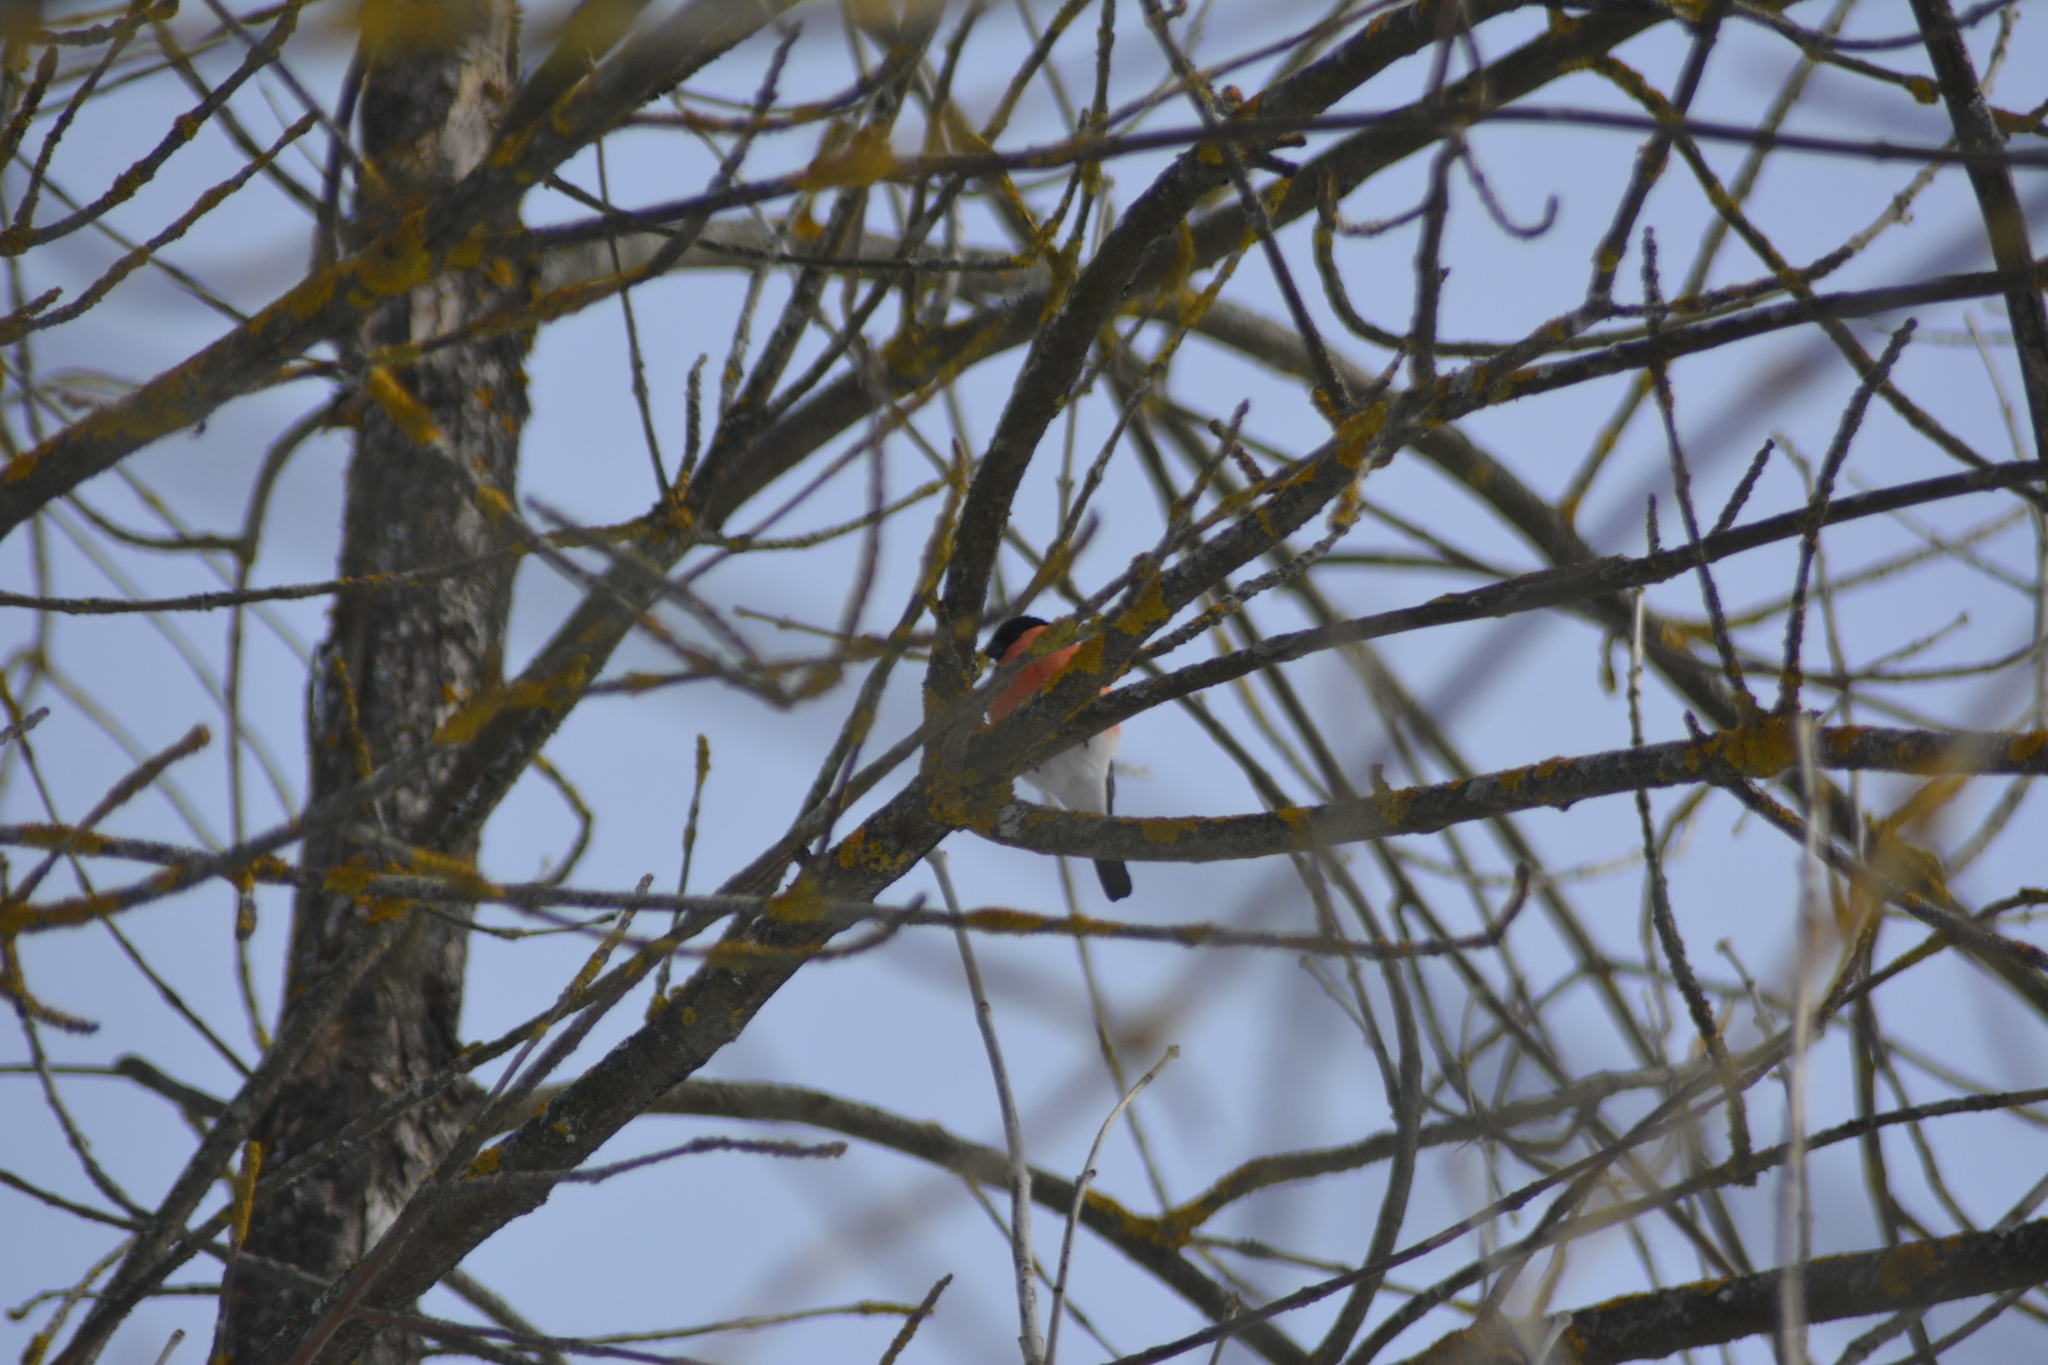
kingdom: Animalia
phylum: Chordata
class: Aves
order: Passeriformes
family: Fringillidae
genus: Pyrrhula
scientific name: Pyrrhula pyrrhula
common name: Eurasian bullfinch
